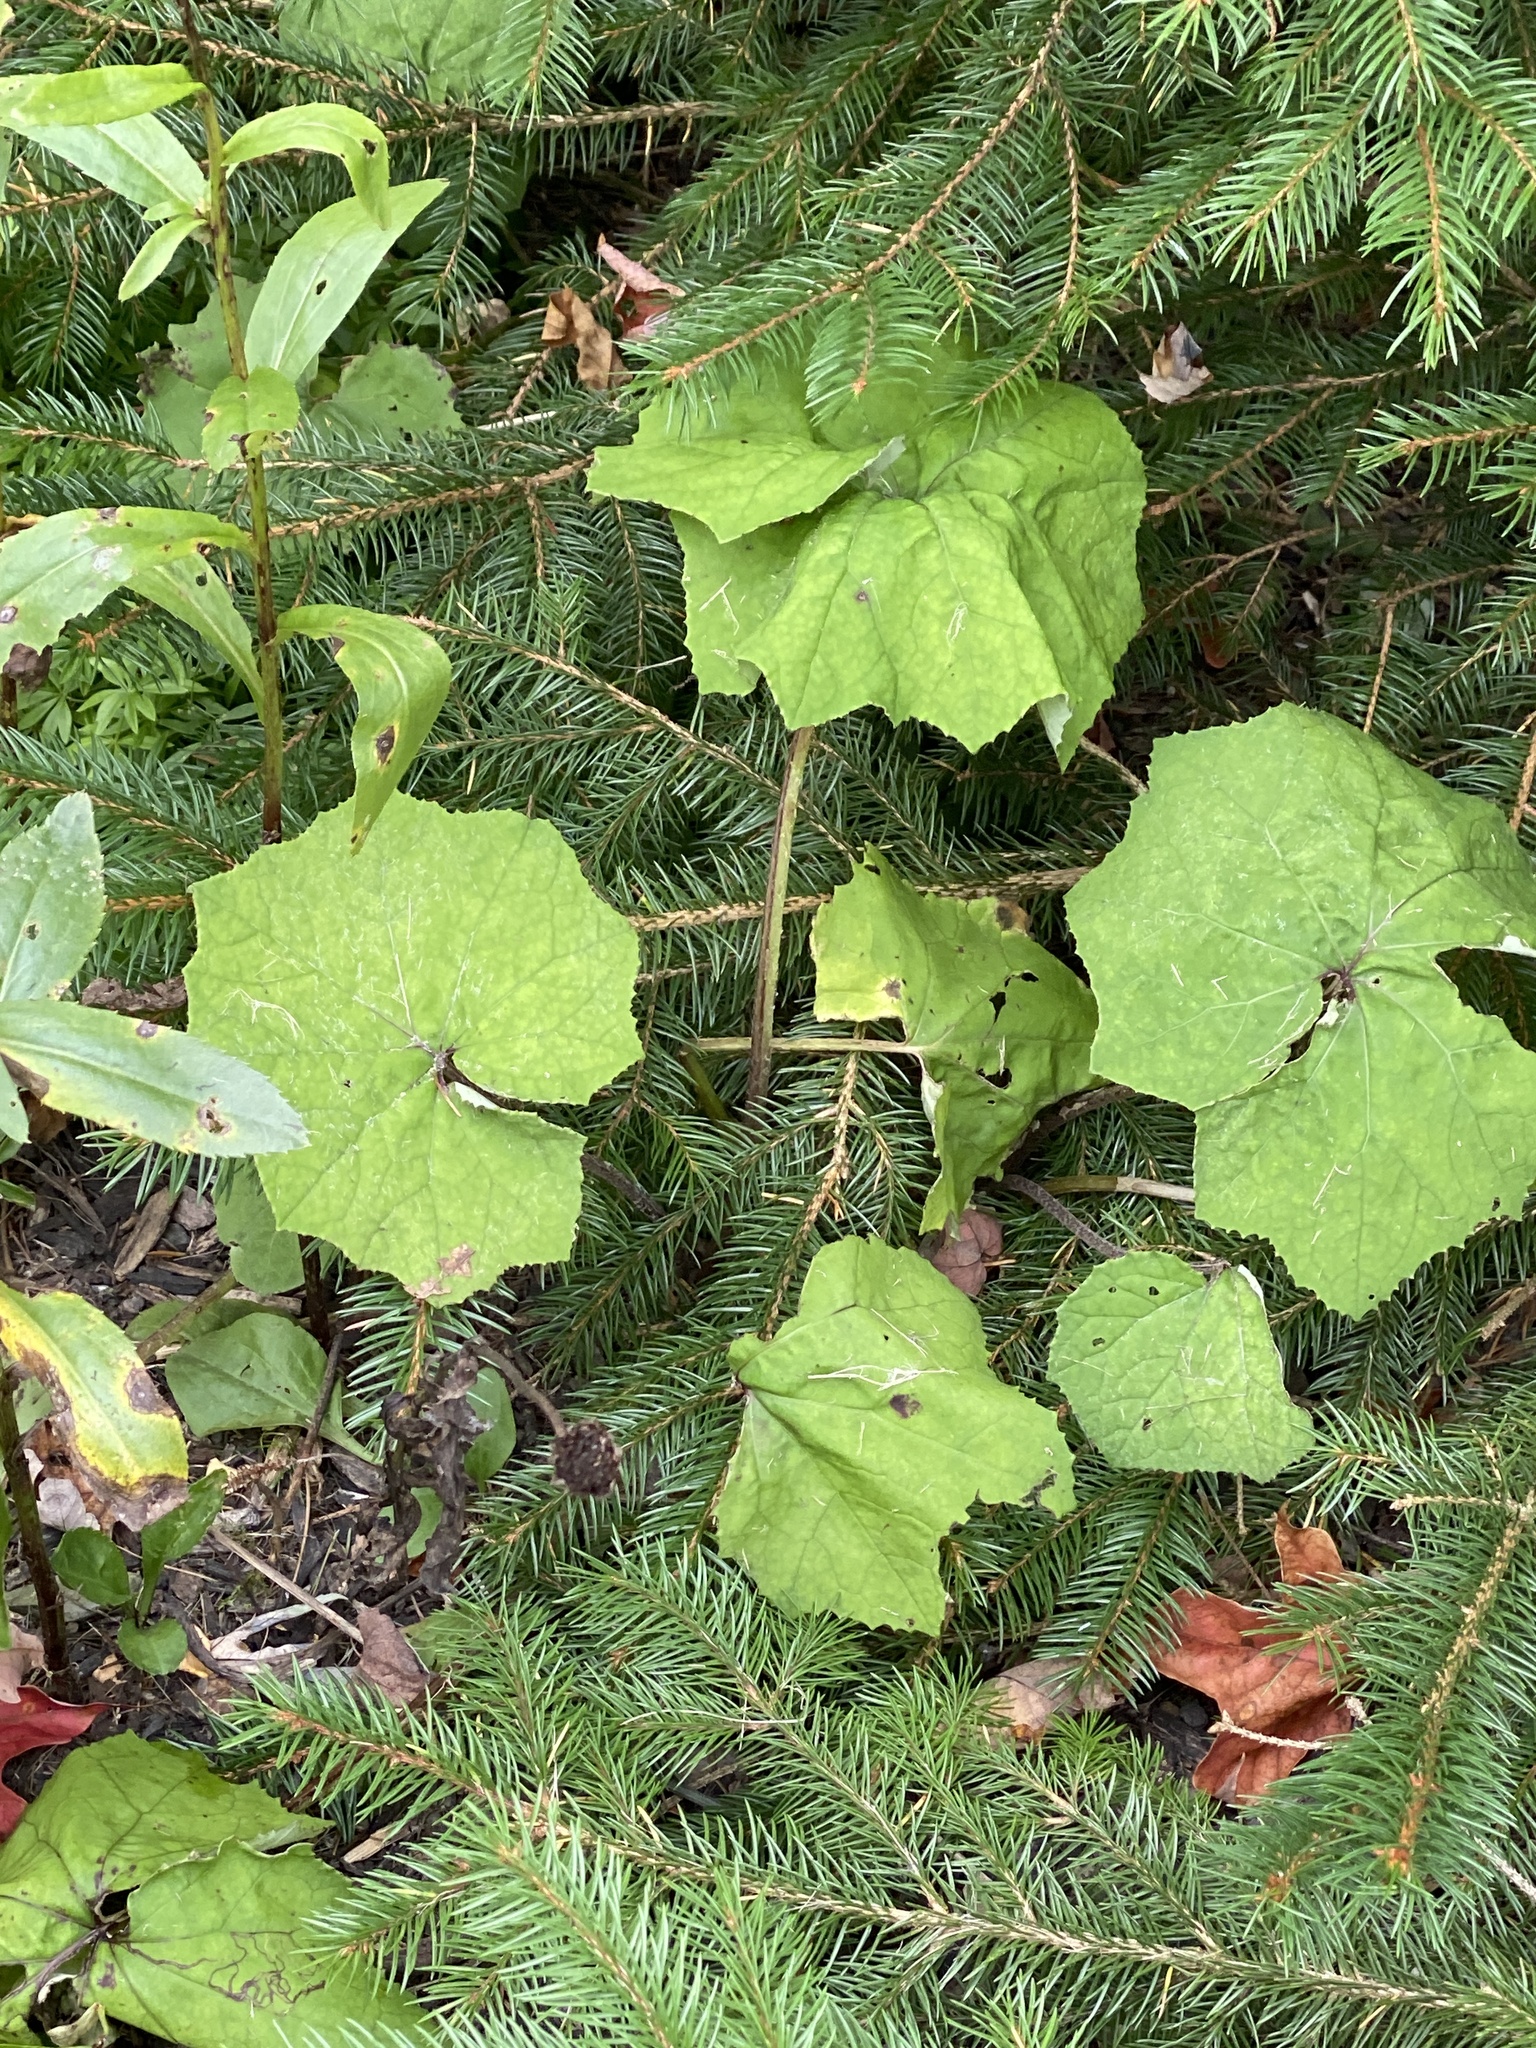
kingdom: Plantae
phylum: Tracheophyta
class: Magnoliopsida
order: Asterales
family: Asteraceae
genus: Tussilago
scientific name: Tussilago farfara
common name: Coltsfoot
